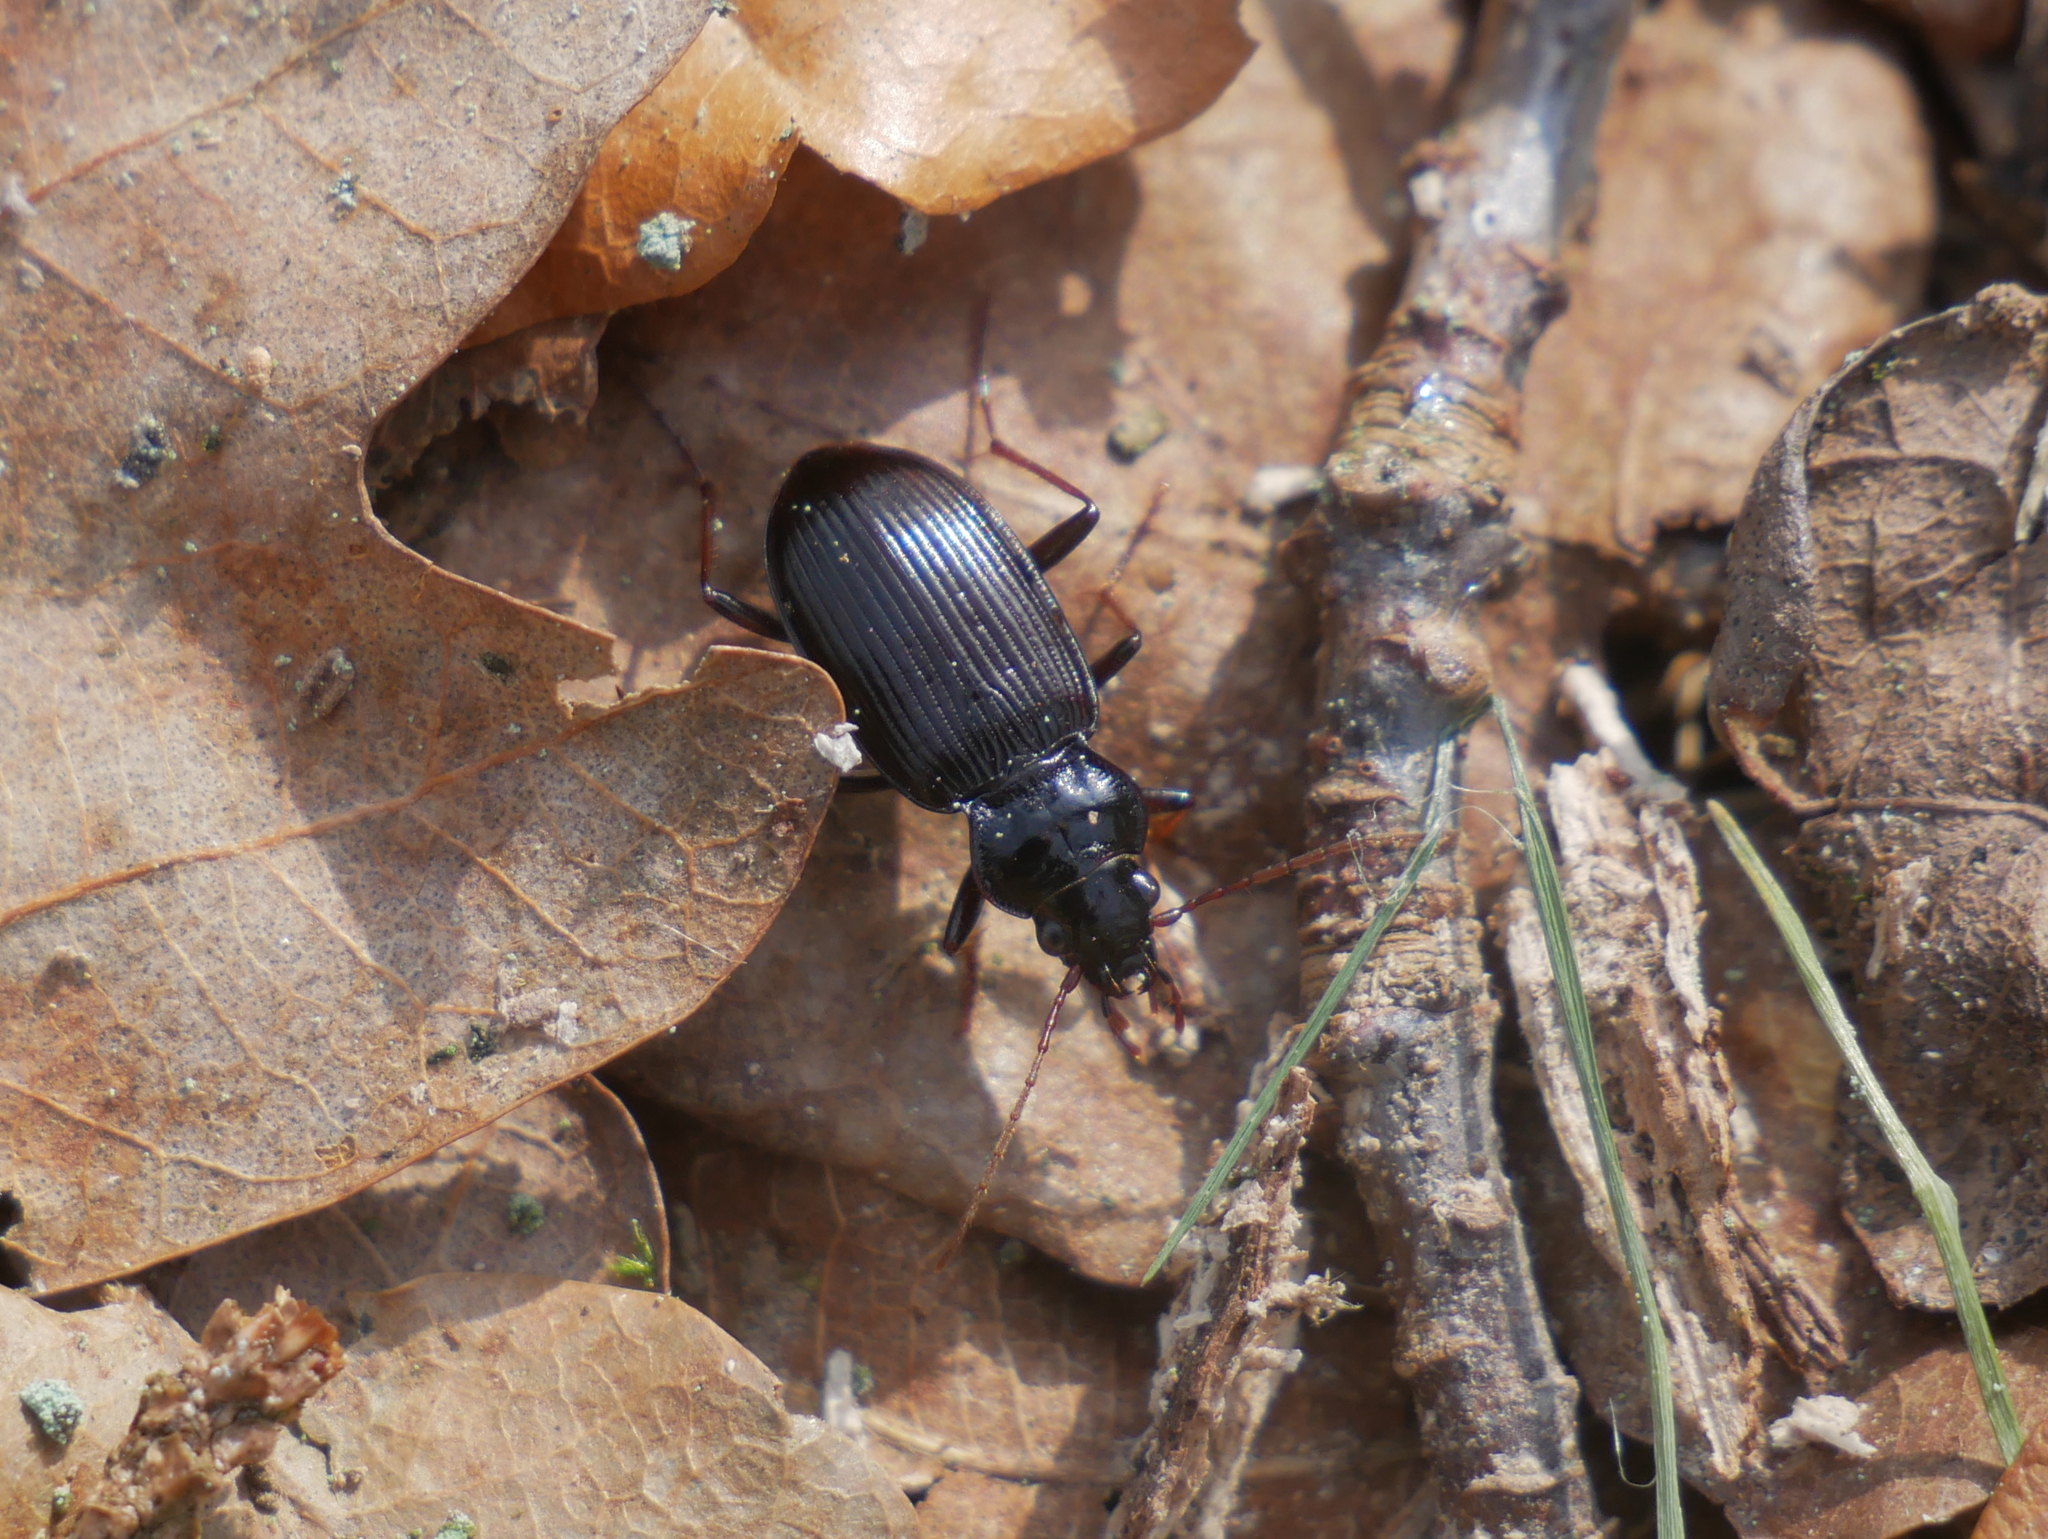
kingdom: Animalia
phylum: Arthropoda
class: Insecta
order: Coleoptera
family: Carabidae
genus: Nebria
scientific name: Nebria salina
